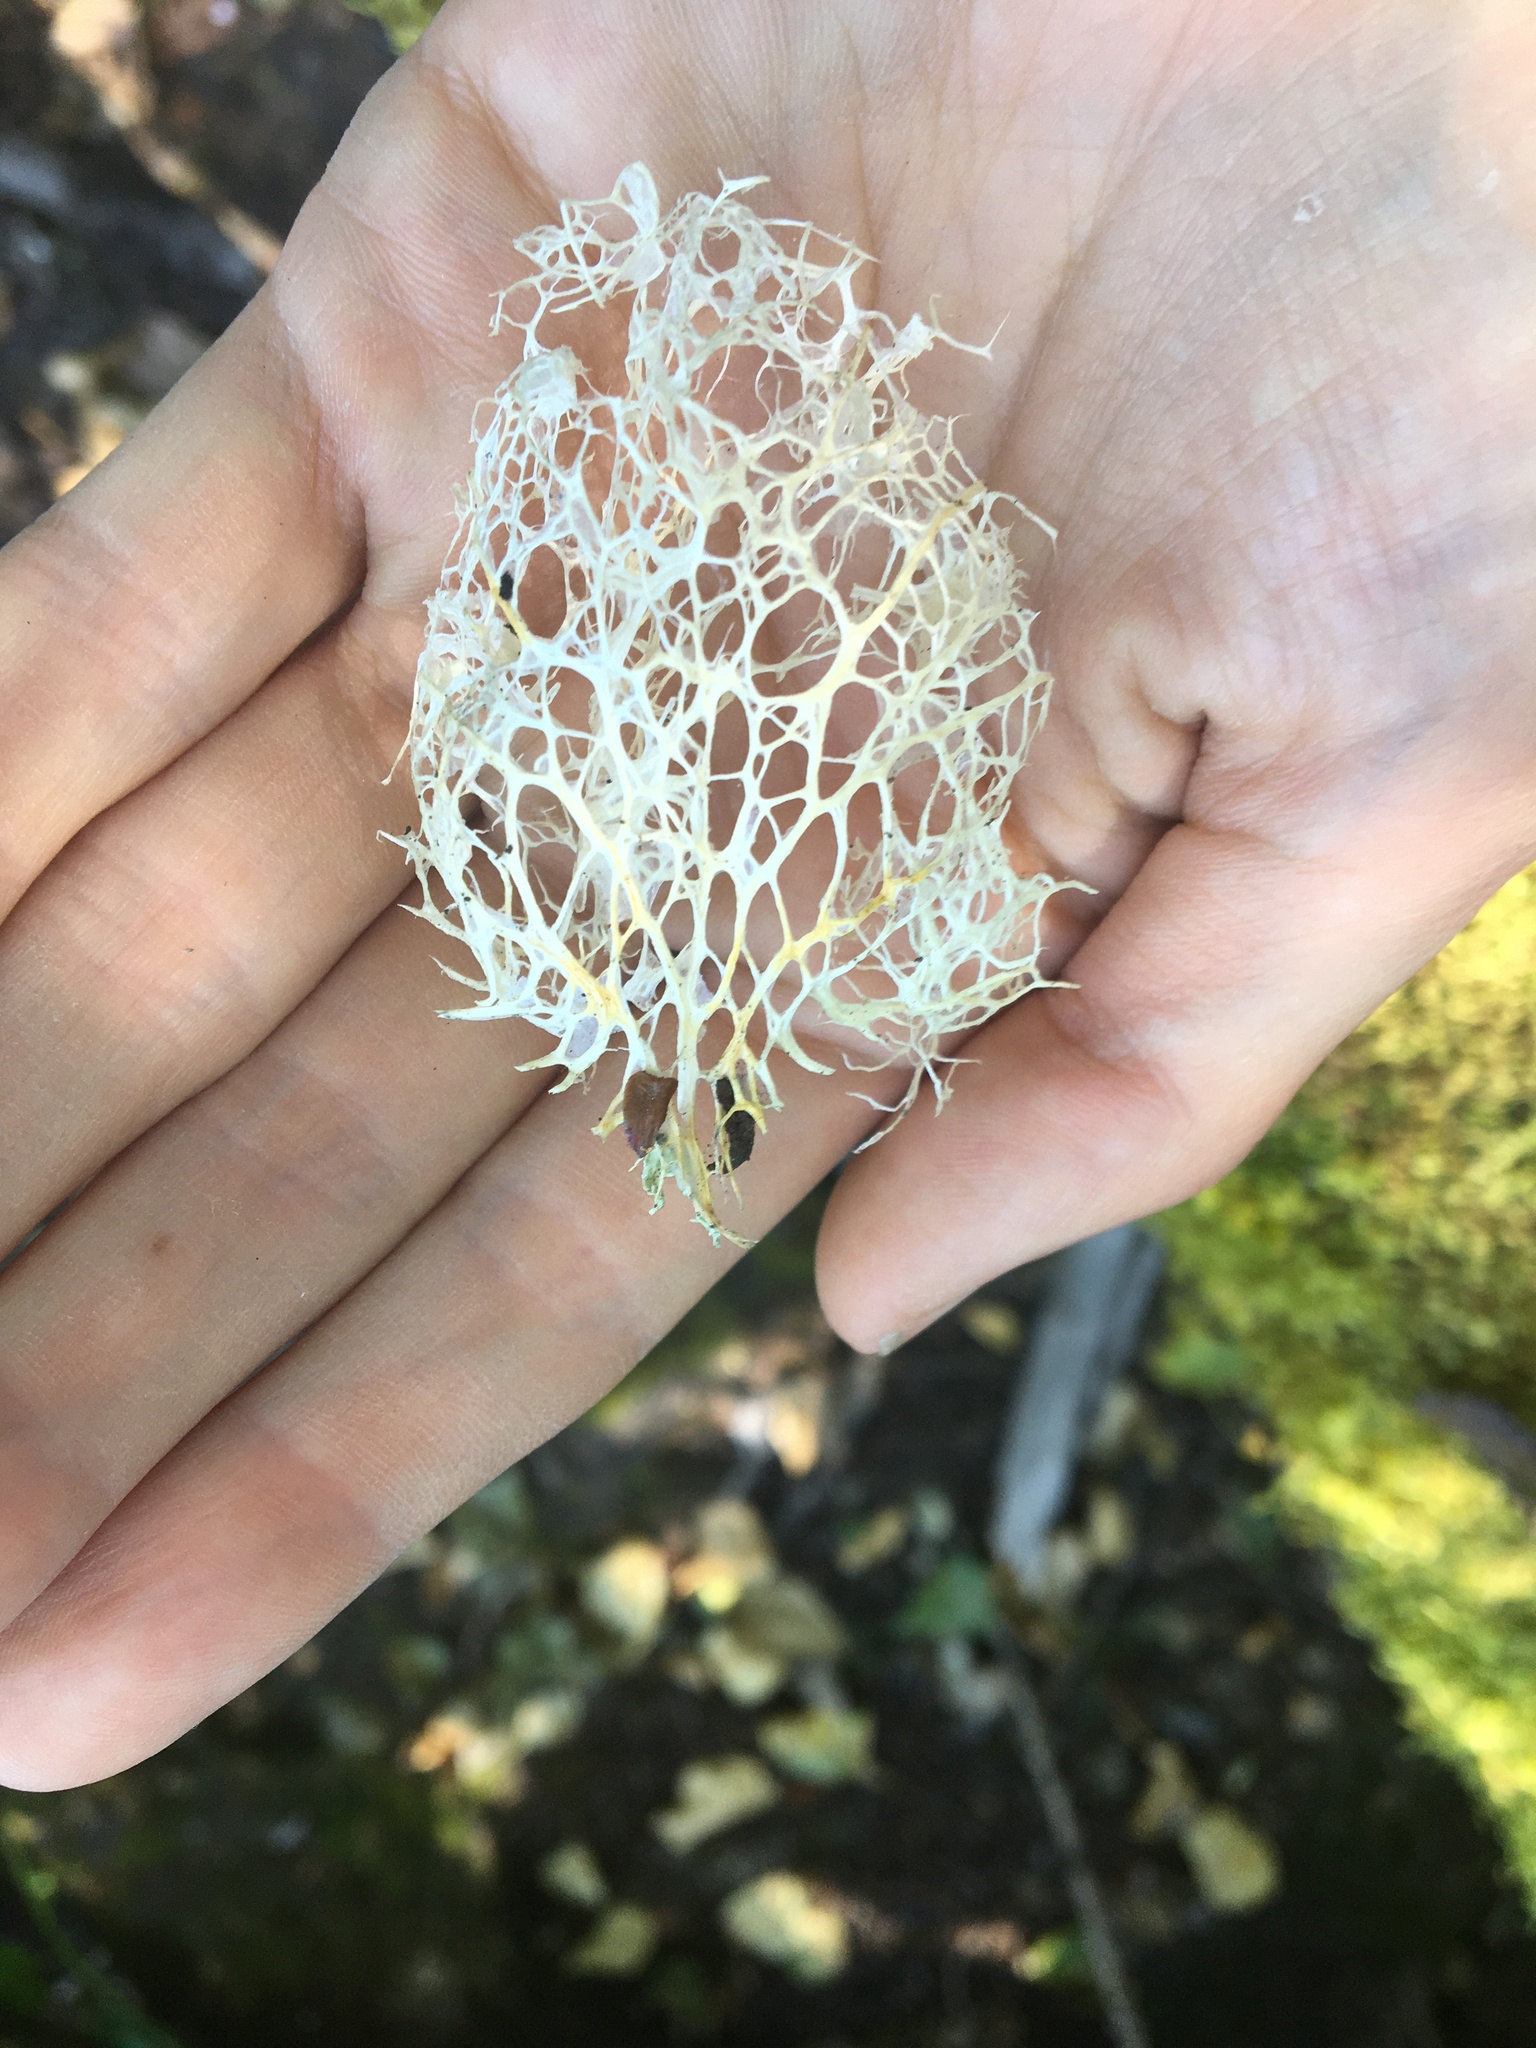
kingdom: Plantae
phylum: Tracheophyta
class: Magnoliopsida
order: Cucurbitales
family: Cucurbitaceae
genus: Marah
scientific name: Marah oregana
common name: Coastal manroot
